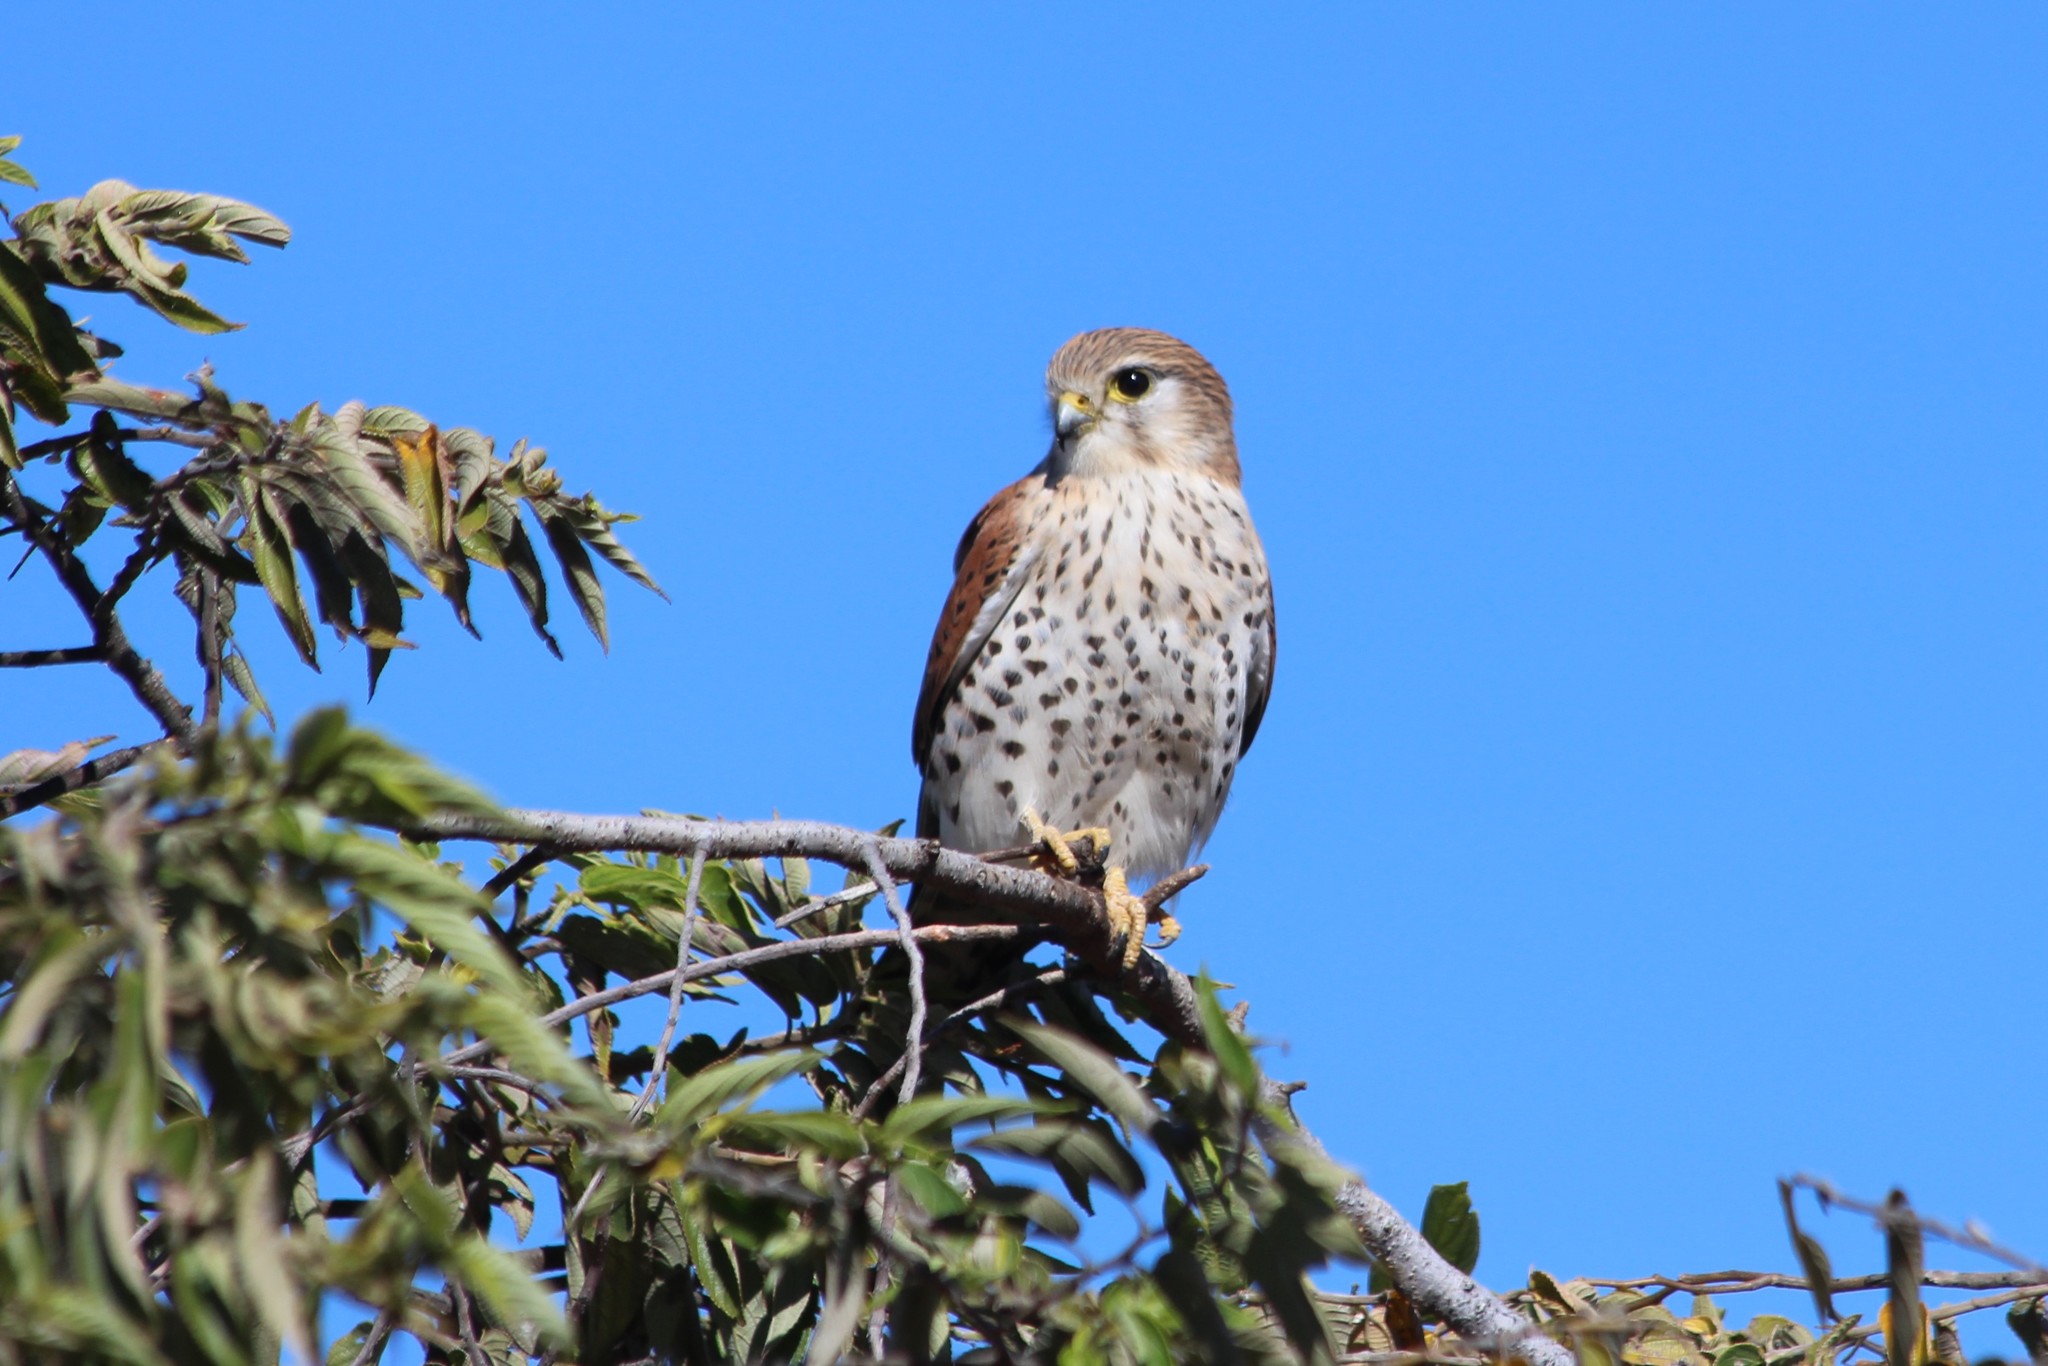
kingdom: Animalia
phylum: Chordata
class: Aves
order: Falconiformes
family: Falconidae
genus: Falco
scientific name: Falco newtoni
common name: Malagasy kestrel
